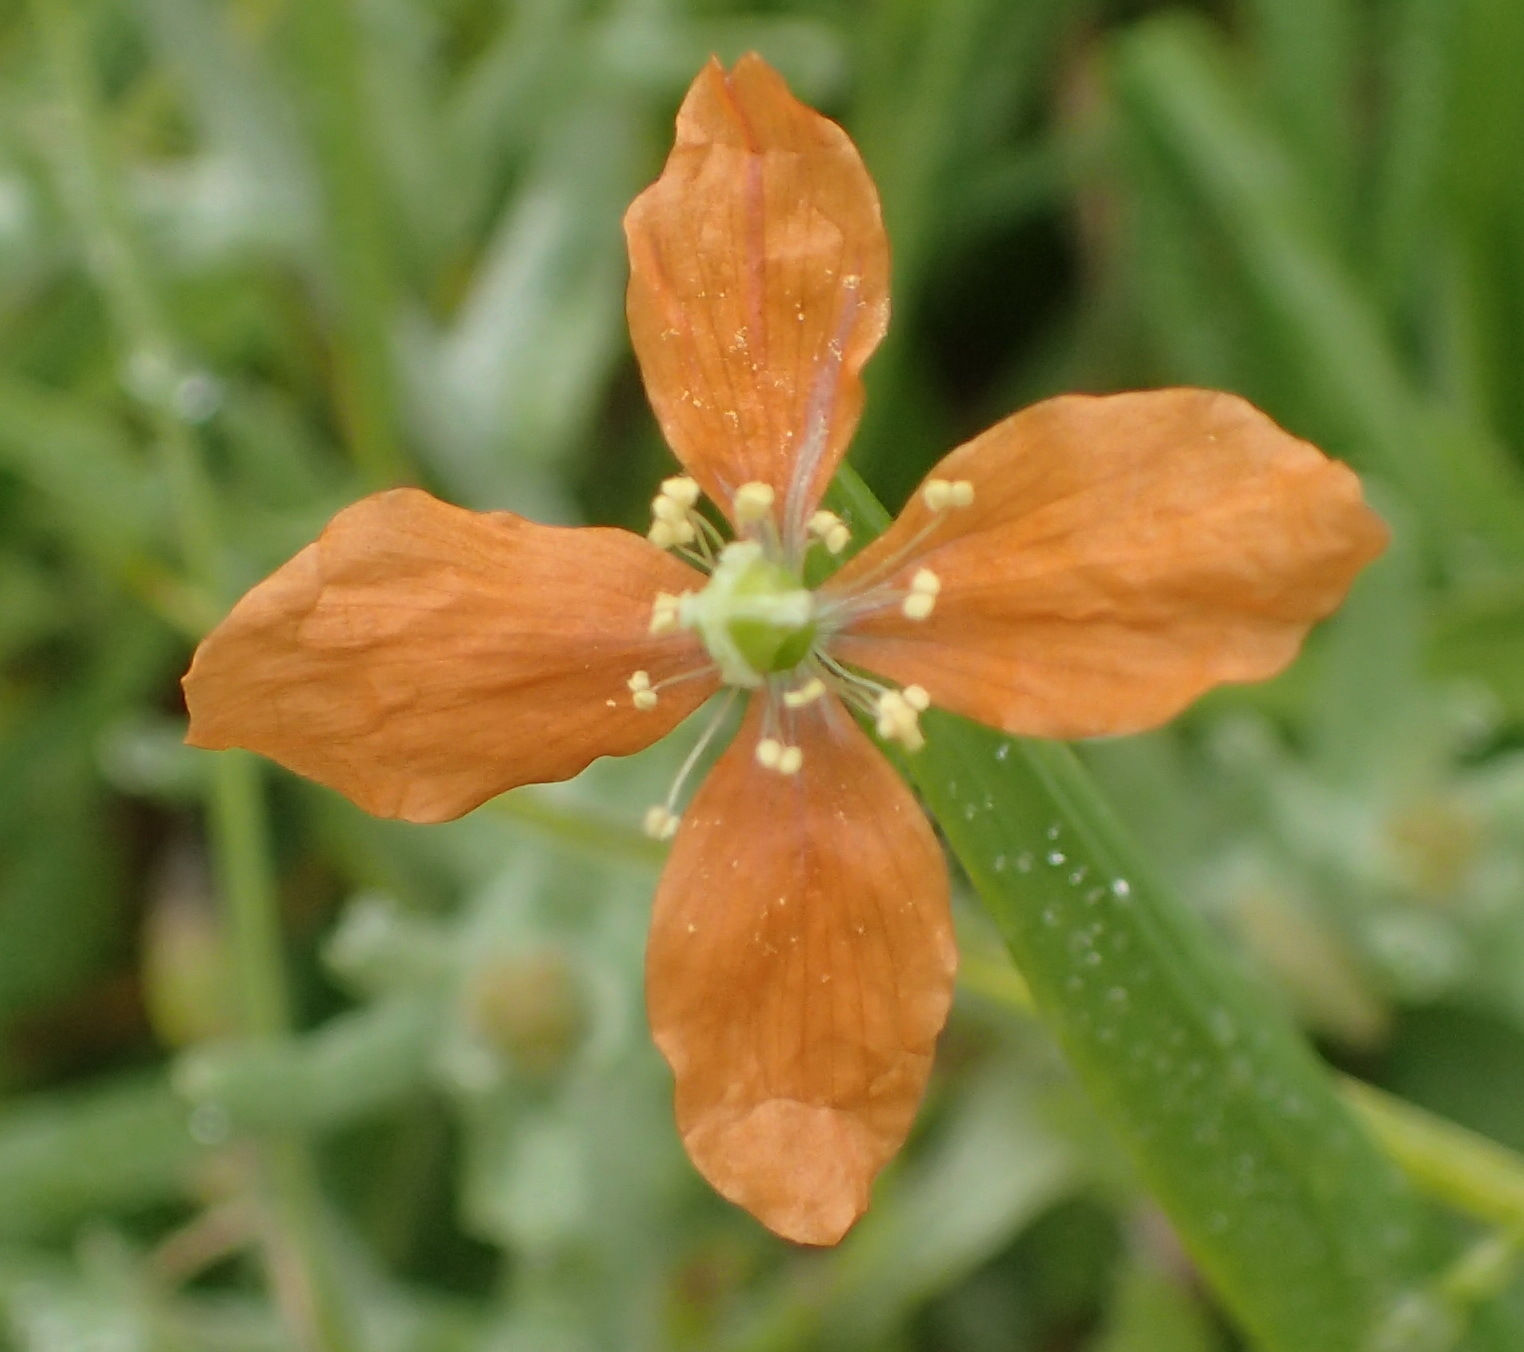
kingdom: Plantae
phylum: Tracheophyta
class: Magnoliopsida
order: Ranunculales
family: Papaveraceae
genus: Papaver
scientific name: Papaver aculeatum
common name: Bristle poppy
